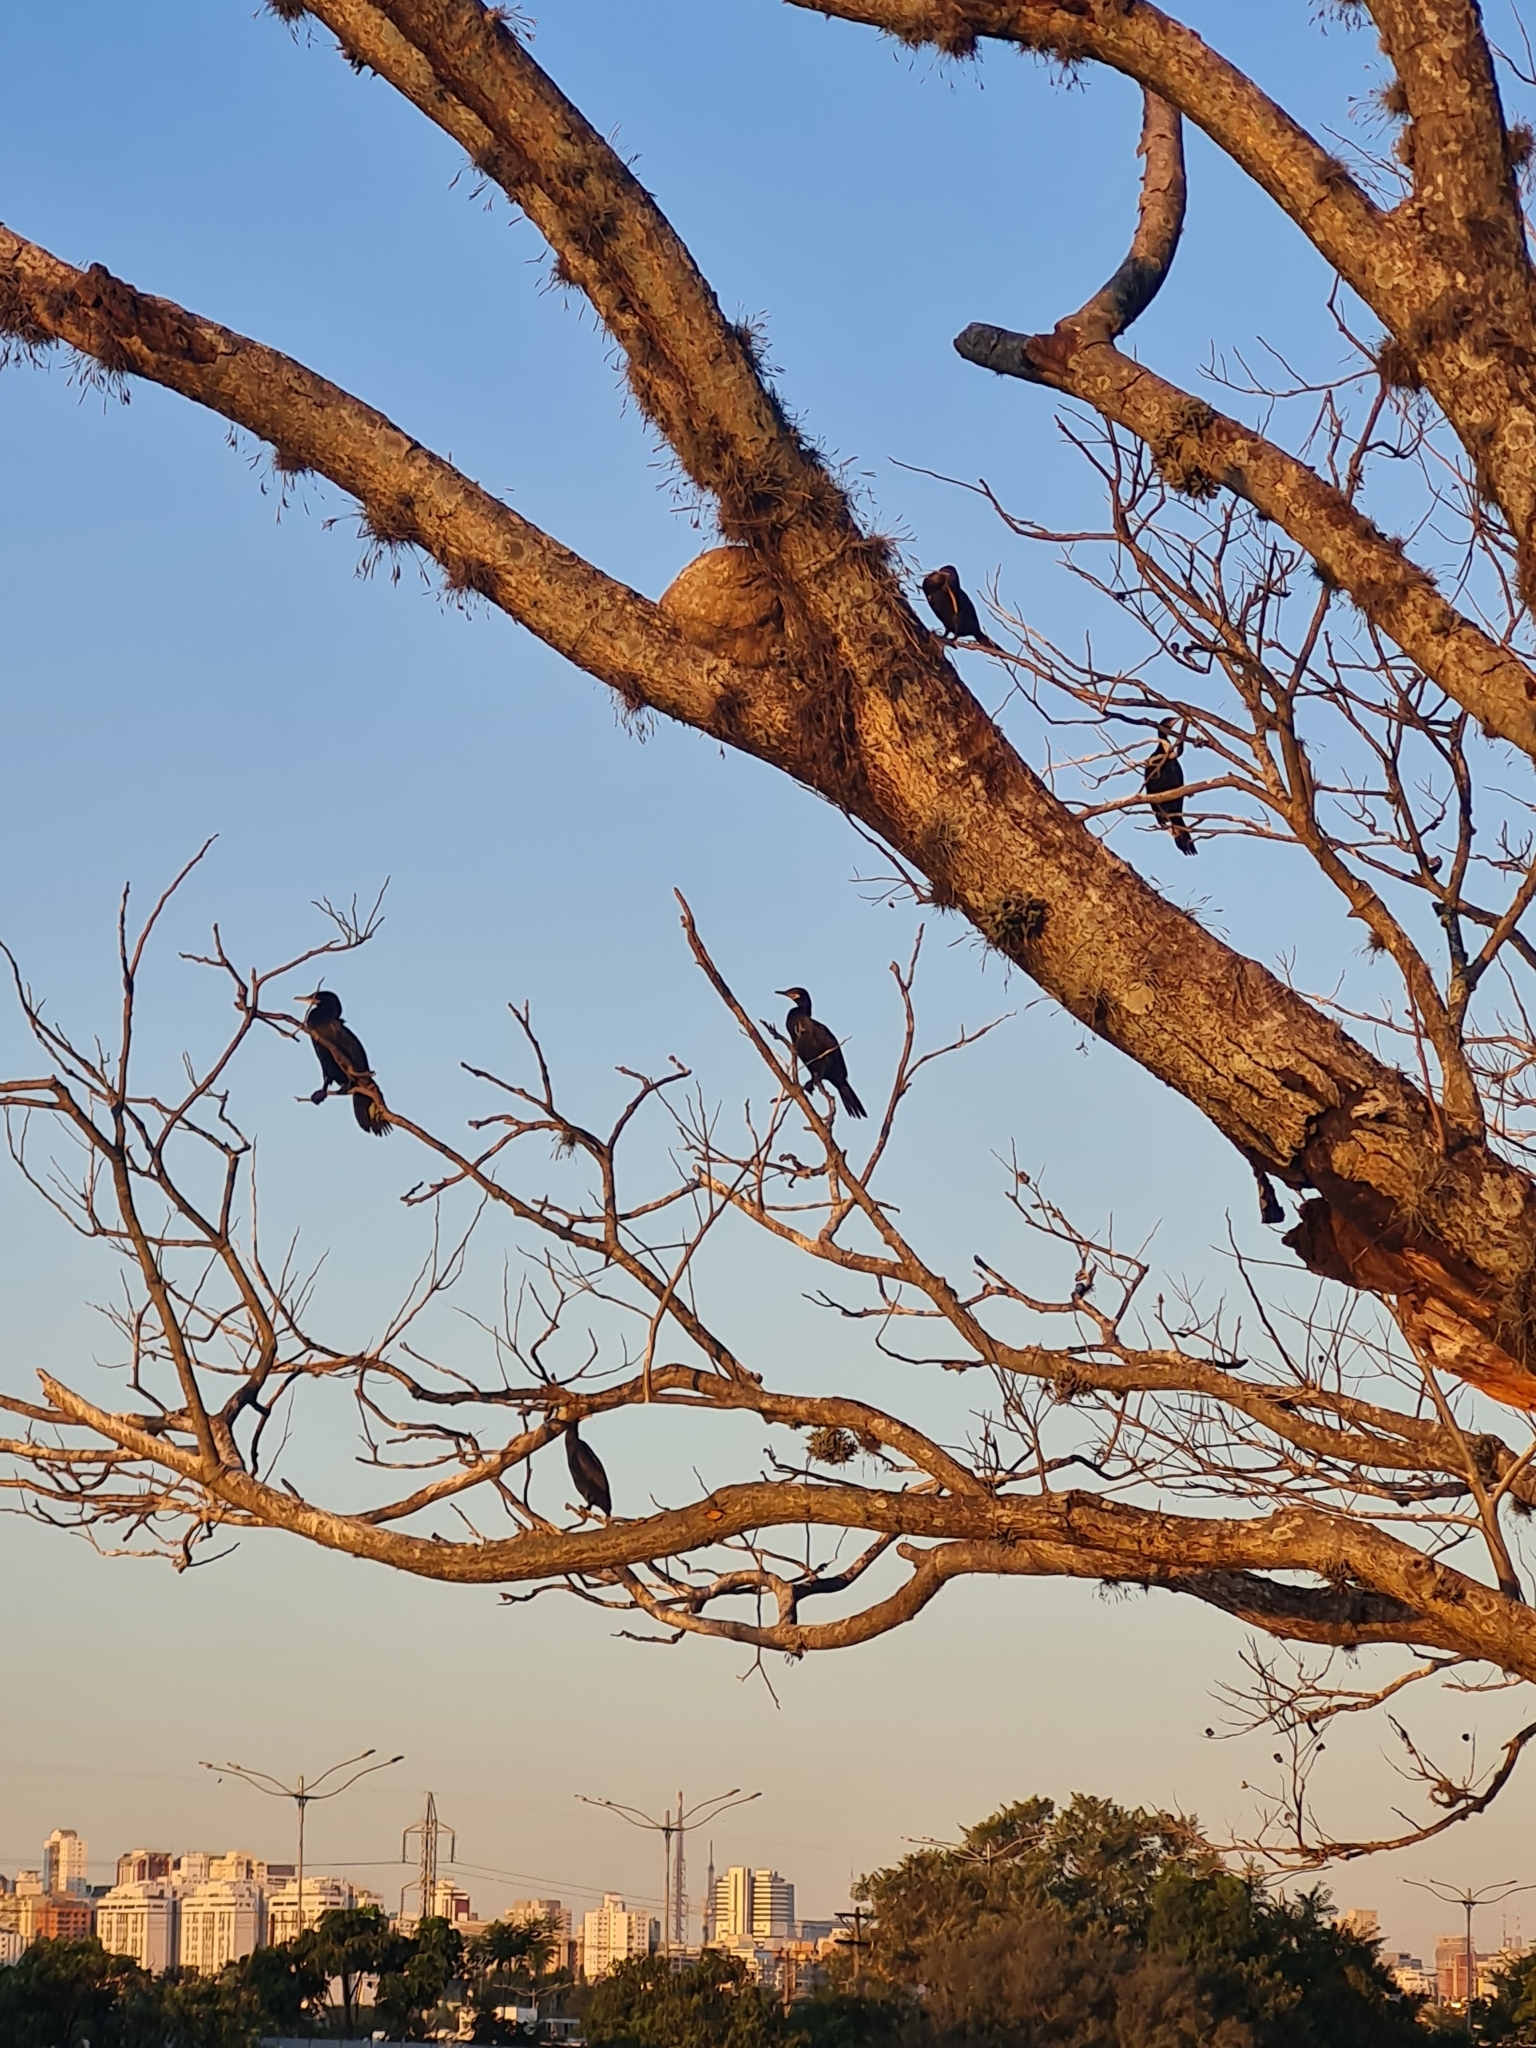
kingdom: Animalia
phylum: Chordata
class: Aves
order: Suliformes
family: Phalacrocoracidae
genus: Phalacrocorax
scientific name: Phalacrocorax brasilianus
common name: Neotropic cormorant
